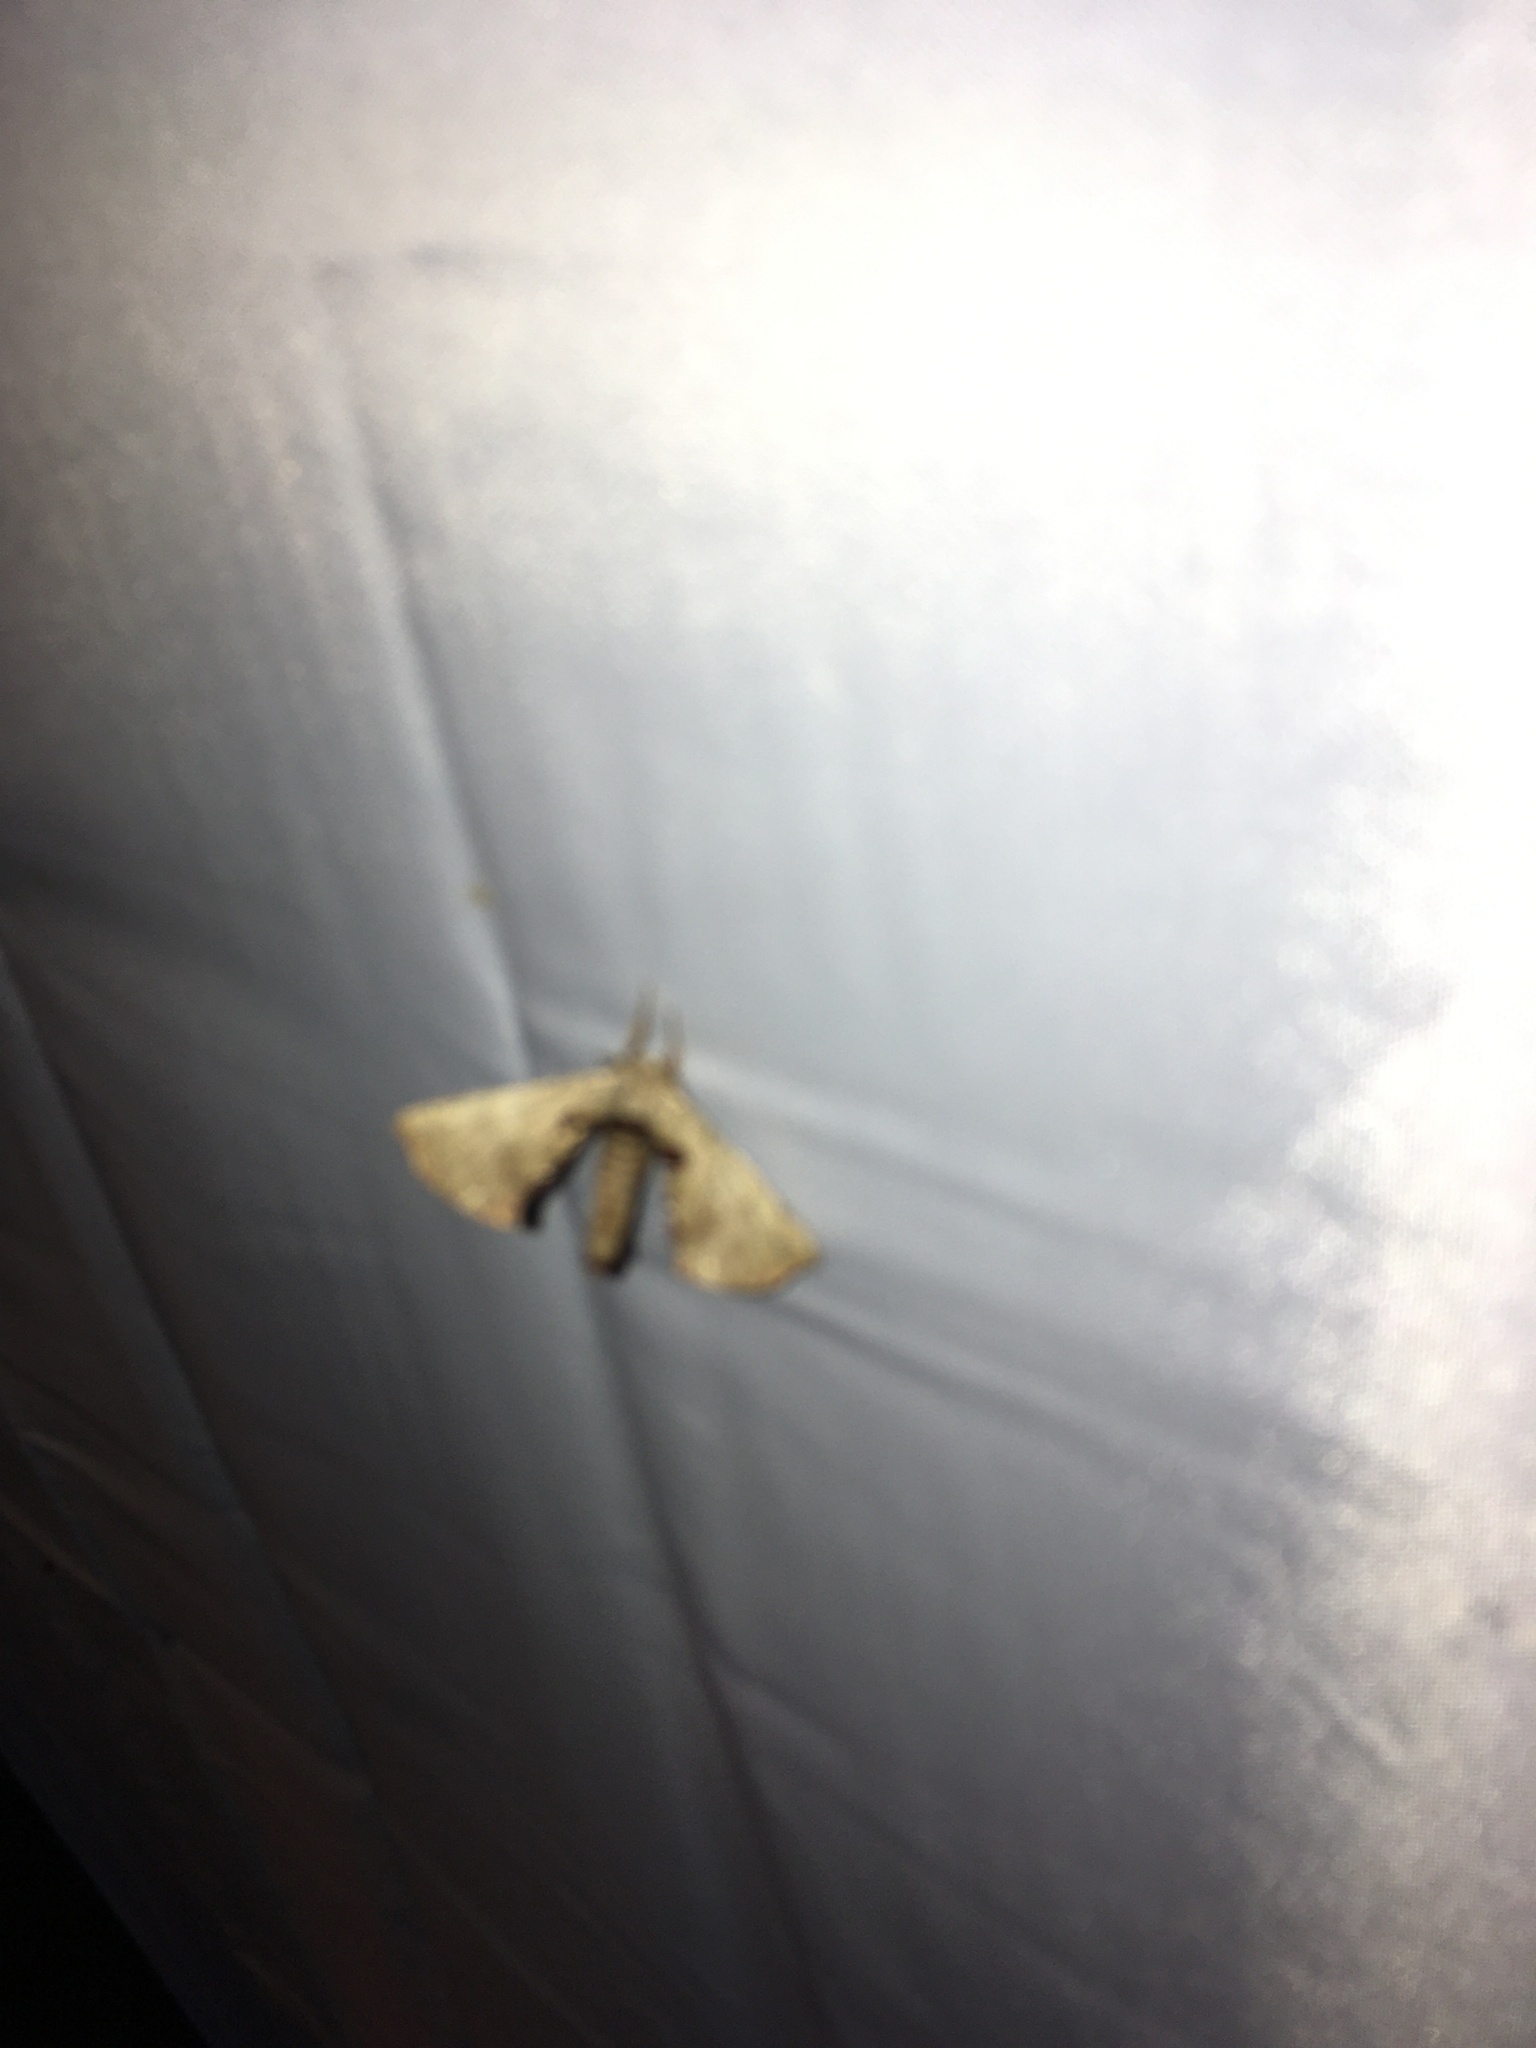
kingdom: Animalia
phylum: Arthropoda
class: Insecta
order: Lepidoptera
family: Apatelodidae
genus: Hygrochroa
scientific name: Hygrochroa Apatelodes torrefacta
